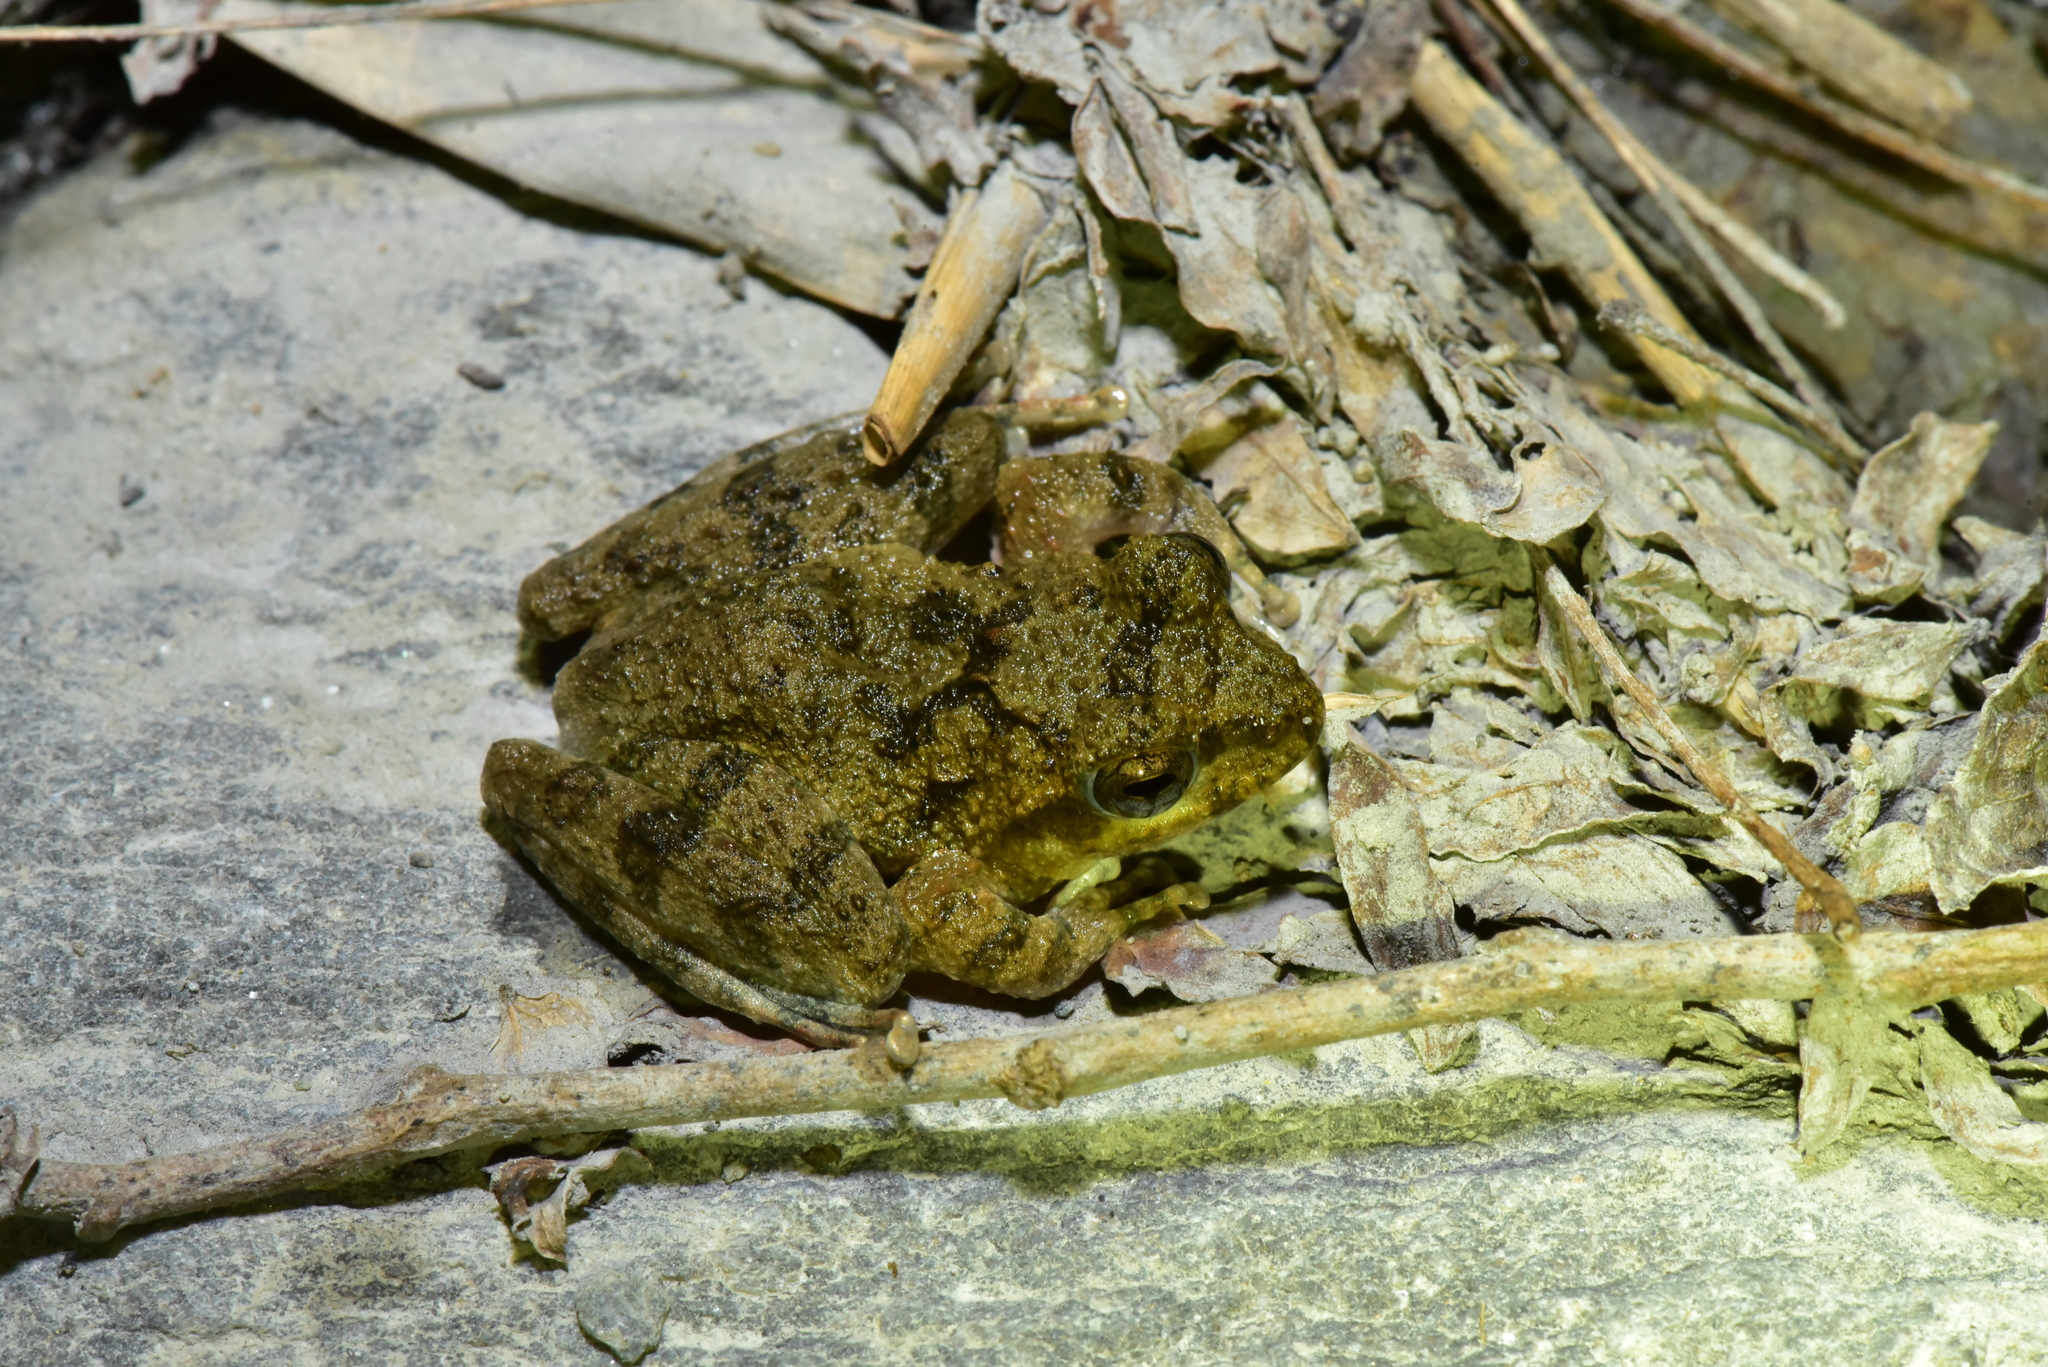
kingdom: Animalia
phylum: Chordata
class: Amphibia
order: Anura
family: Rhacophoridae
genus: Buergeria
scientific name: Buergeria otai
